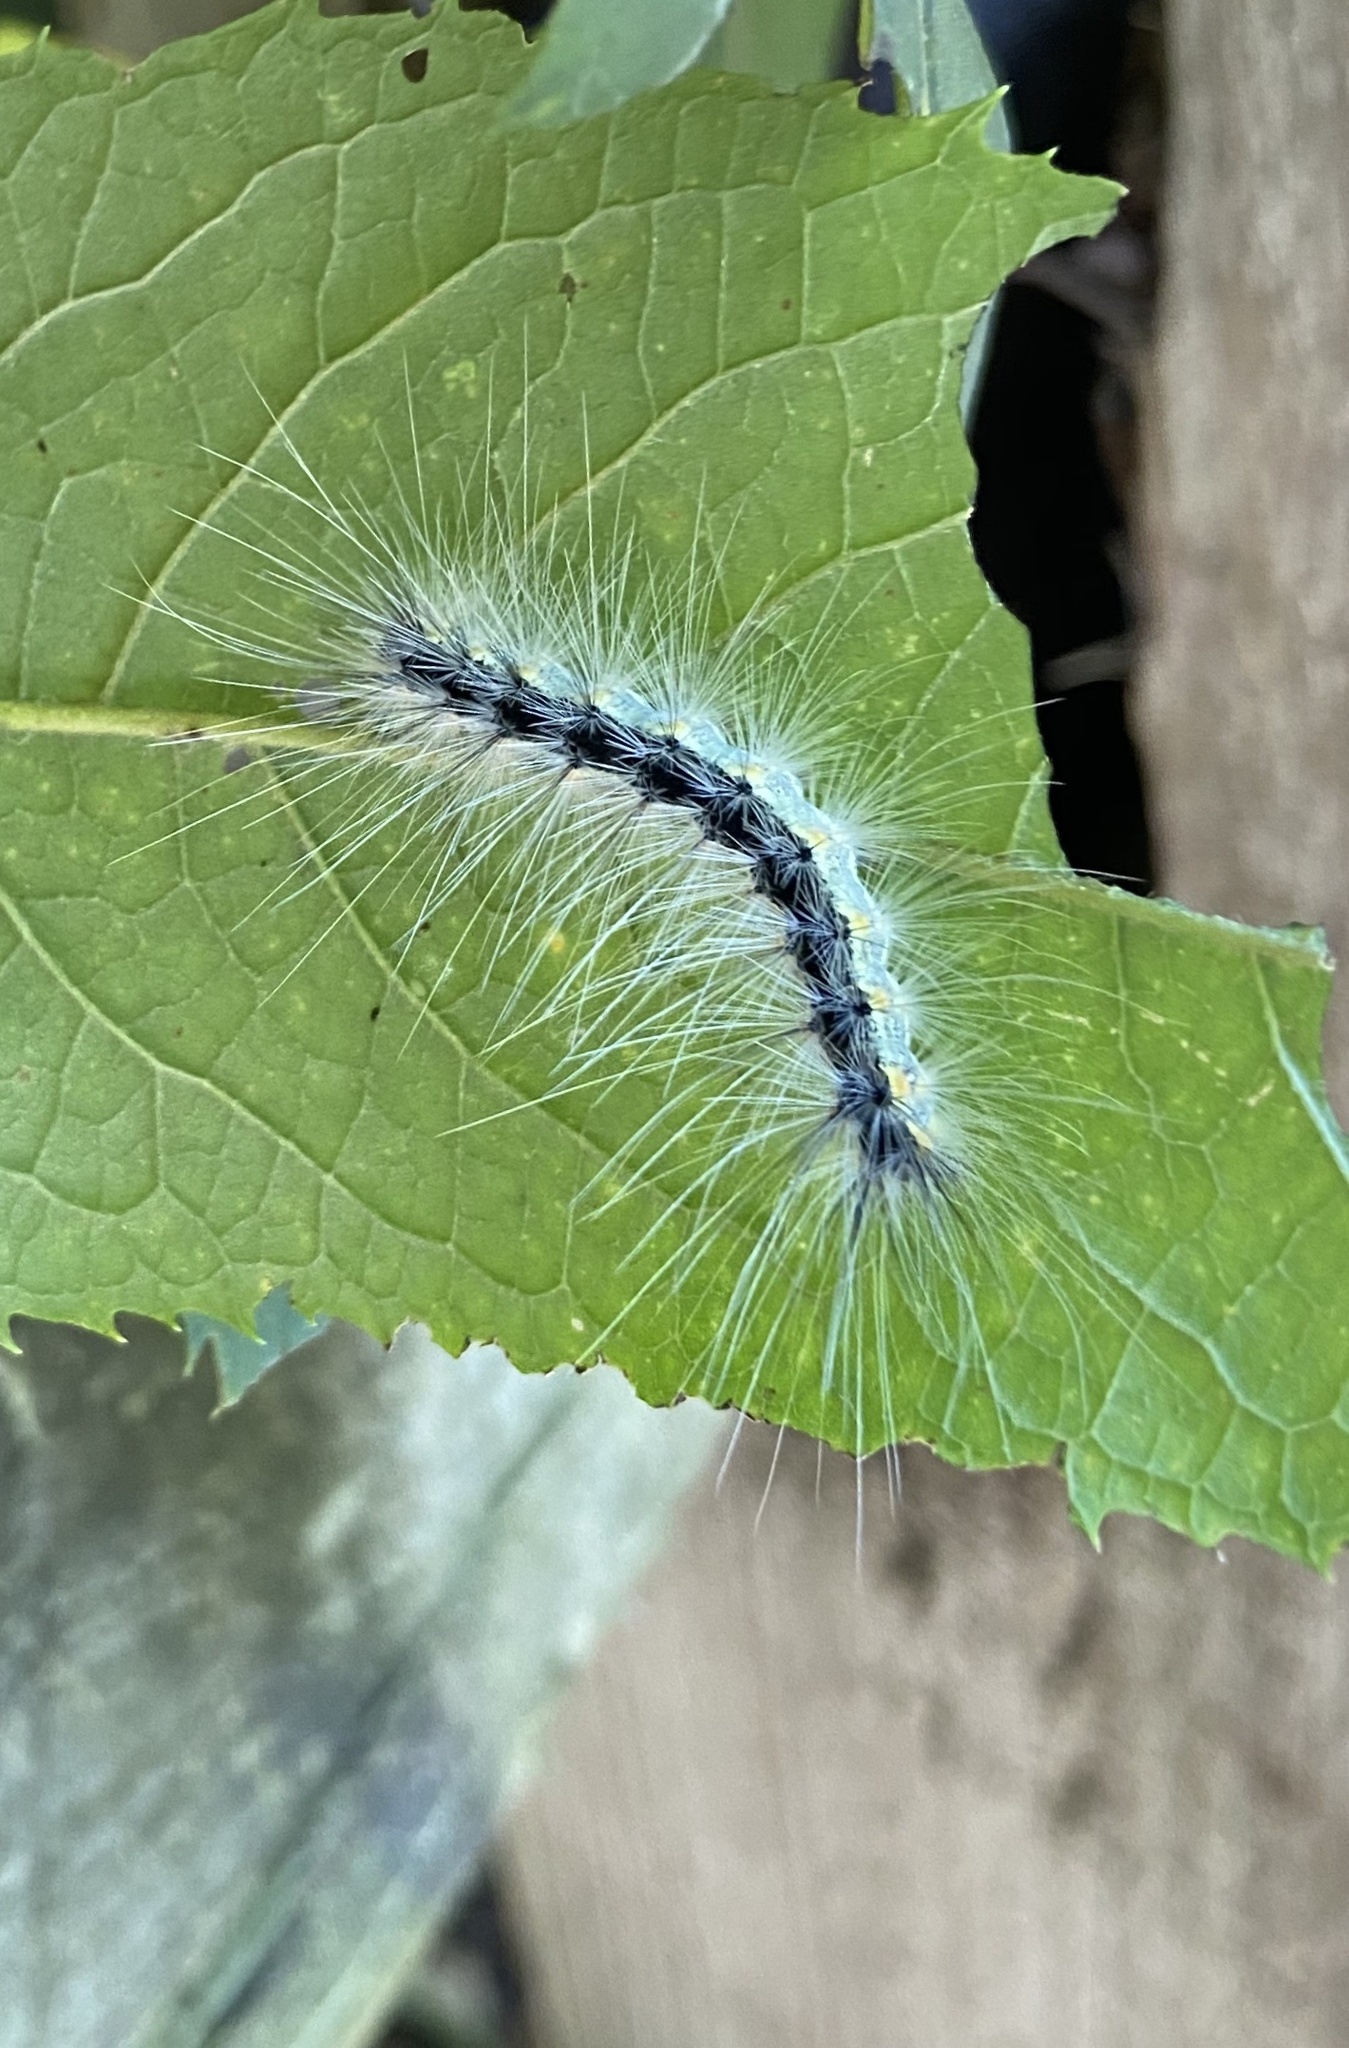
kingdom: Animalia
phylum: Arthropoda
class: Insecta
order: Lepidoptera
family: Erebidae
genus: Hyphantria
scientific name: Hyphantria cunea
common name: American white moth
